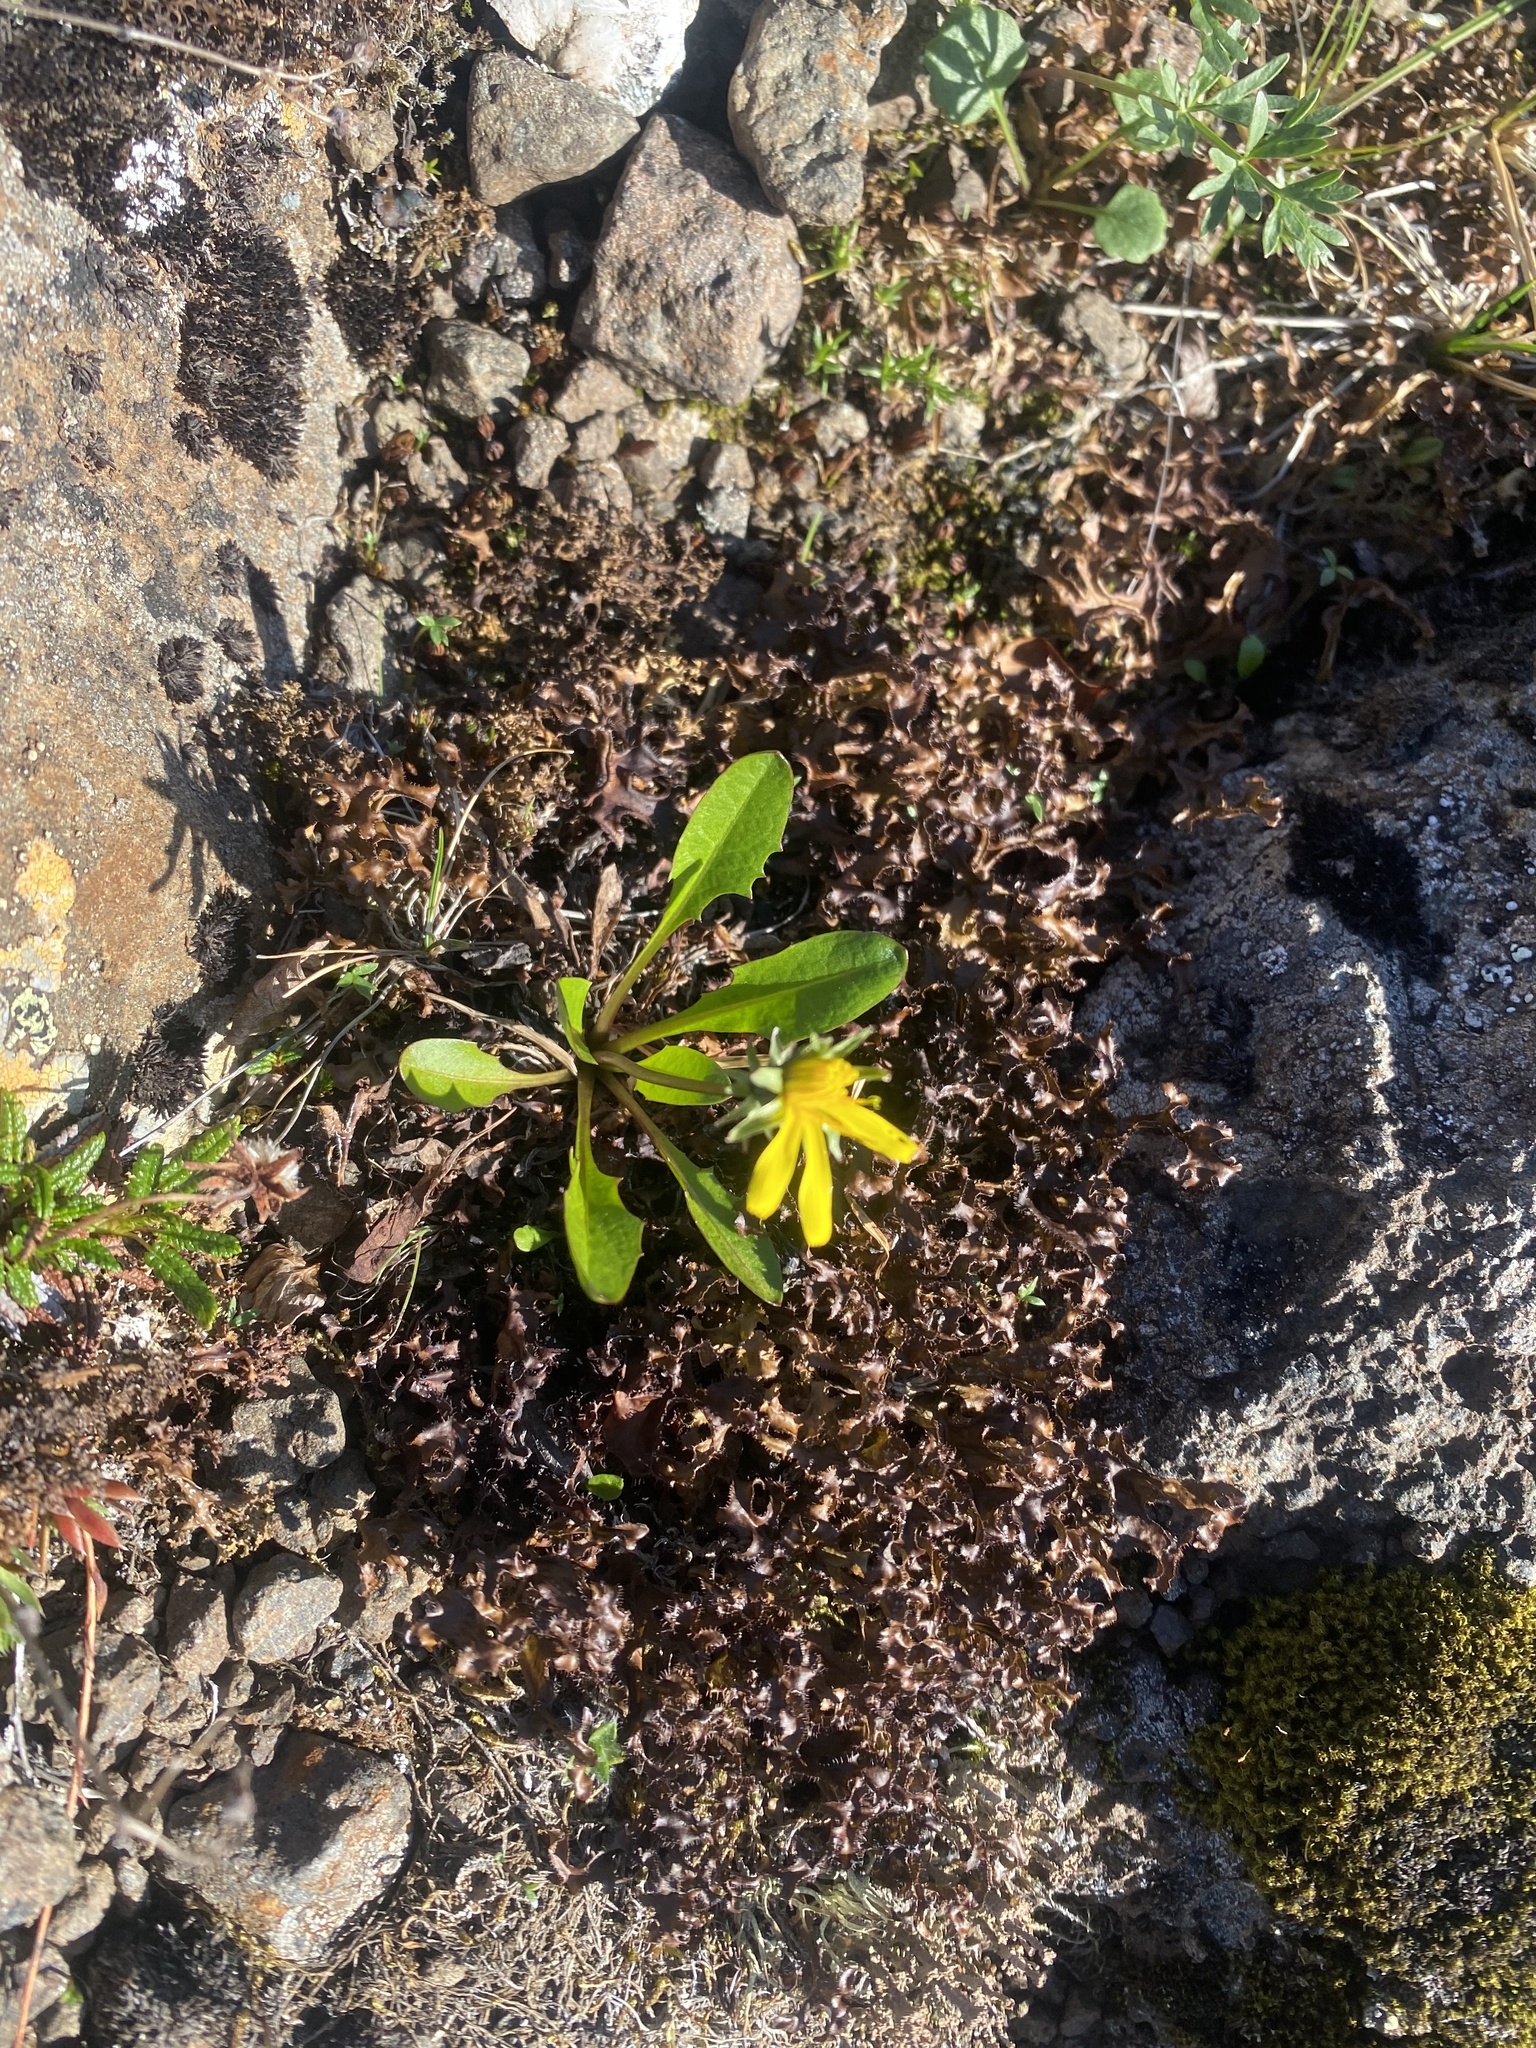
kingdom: Plantae
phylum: Tracheophyta
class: Magnoliopsida
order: Asterales
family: Asteraceae
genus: Taraxacum
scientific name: Taraxacum glabrum
